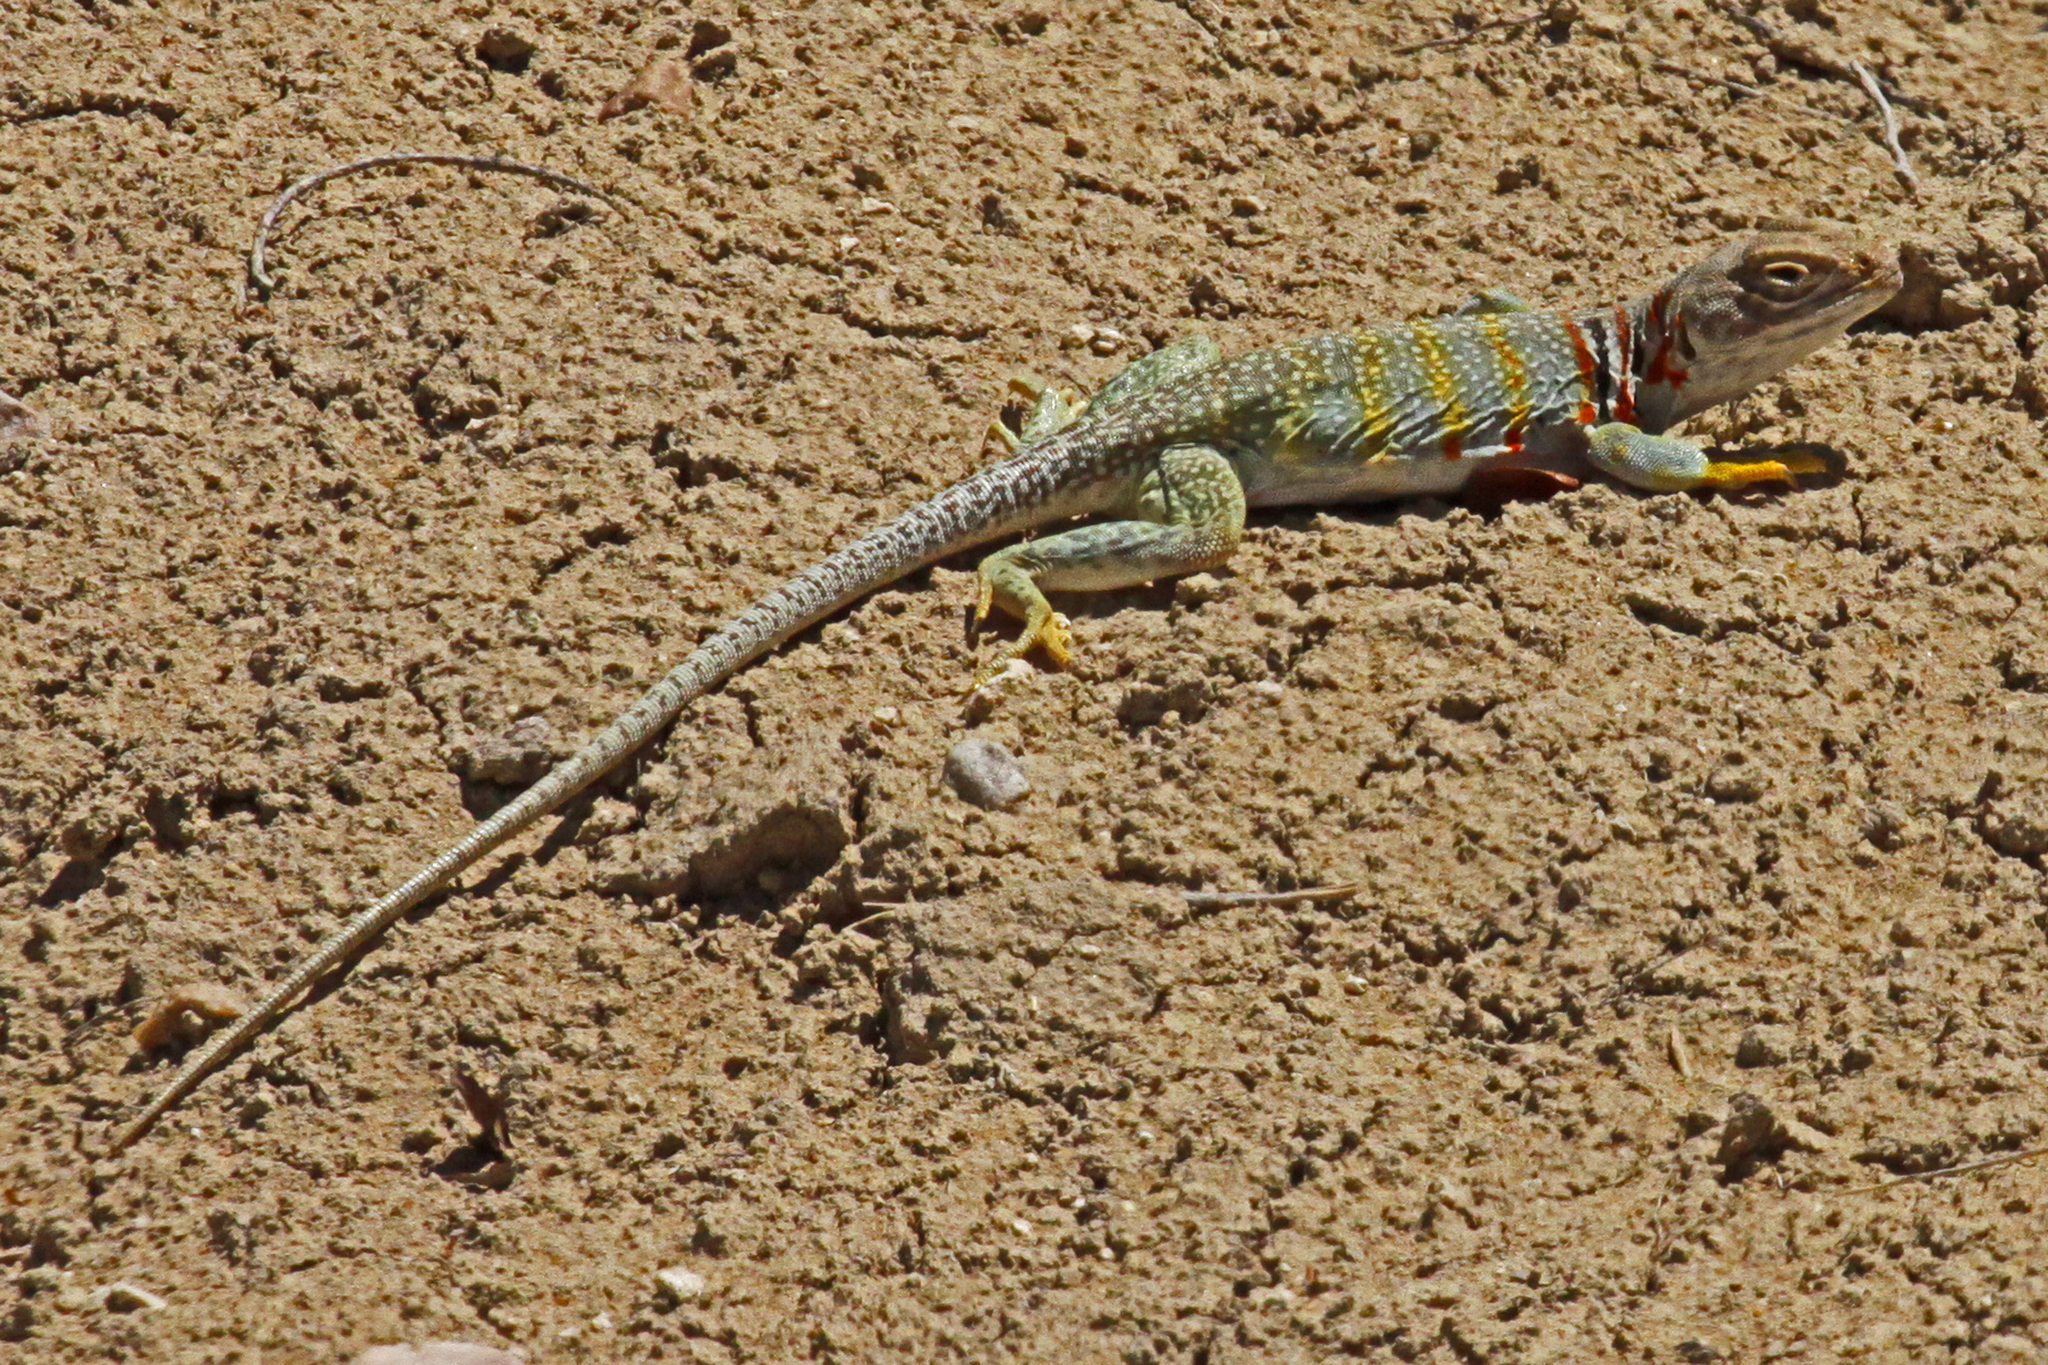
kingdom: Animalia
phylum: Chordata
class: Squamata
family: Crotaphytidae
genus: Crotaphytus
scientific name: Crotaphytus collaris
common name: Collared lizard
